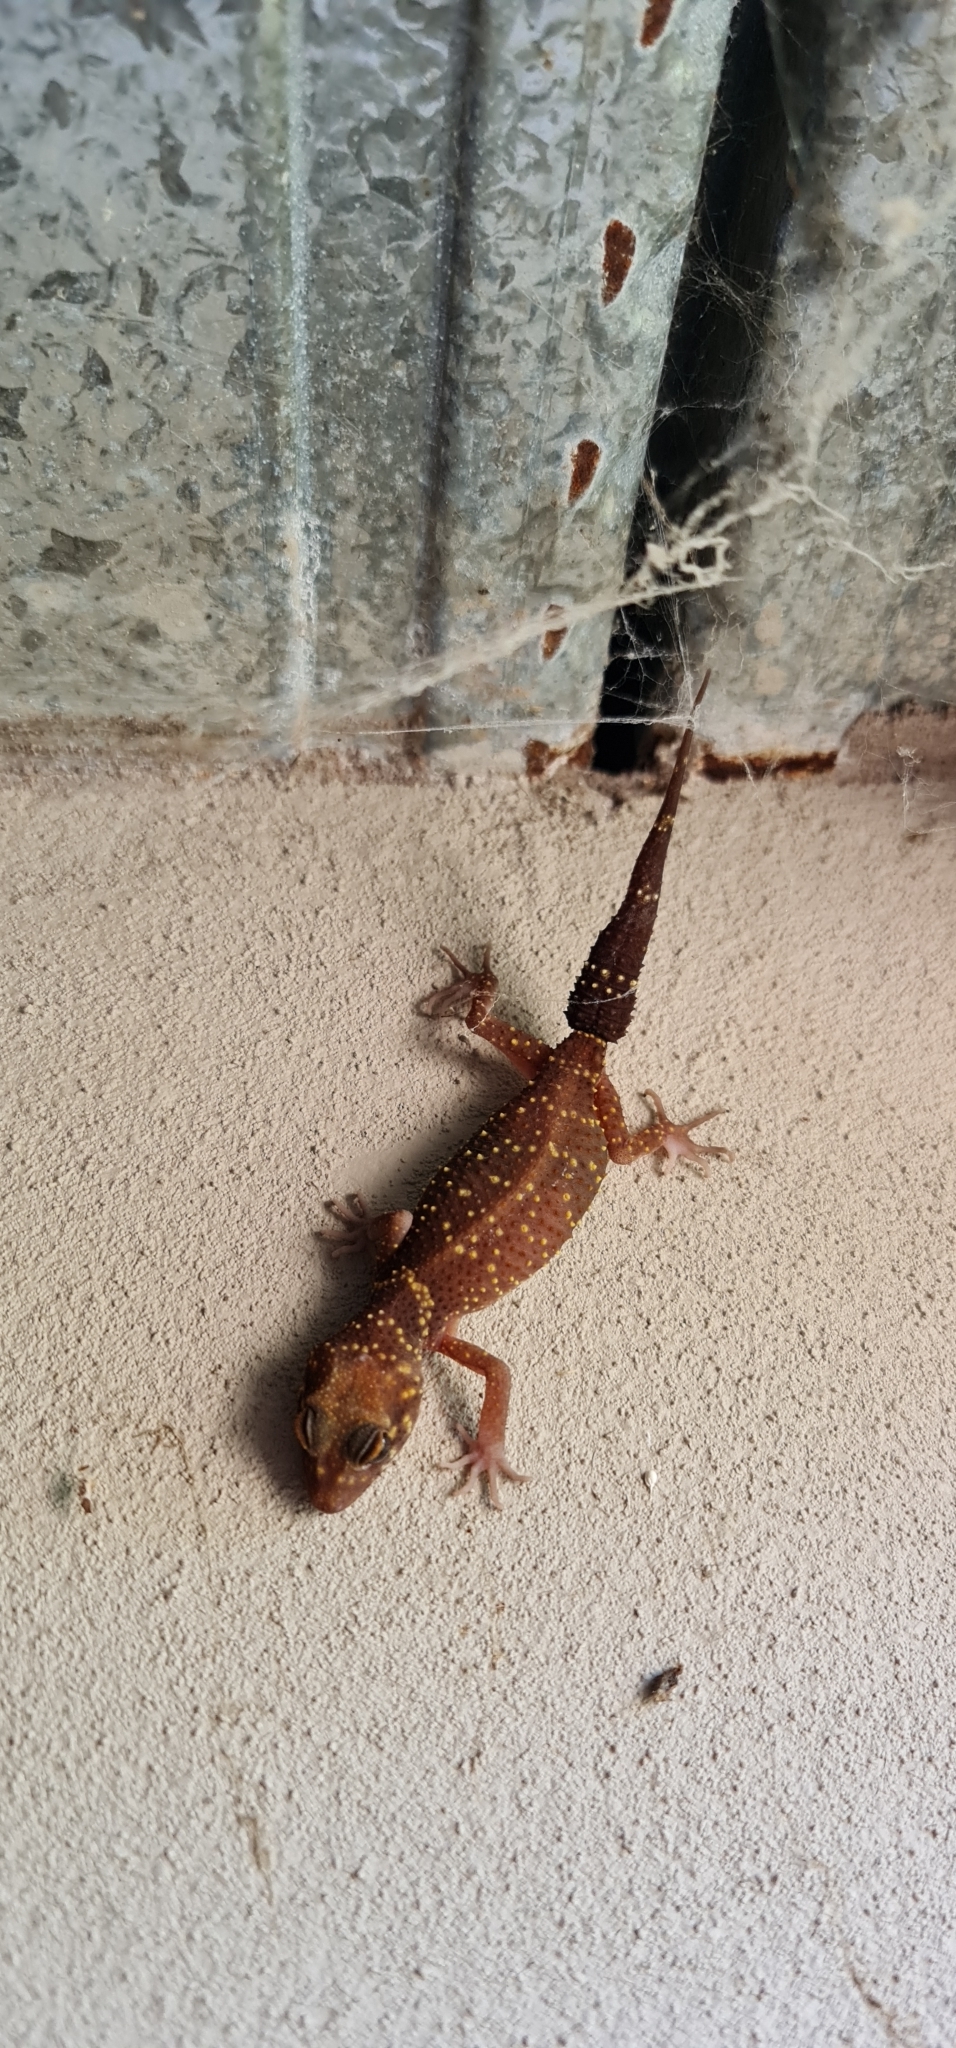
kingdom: Animalia
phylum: Chordata
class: Squamata
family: Carphodactylidae
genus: Underwoodisaurus
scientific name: Underwoodisaurus milii
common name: Barking gecko
